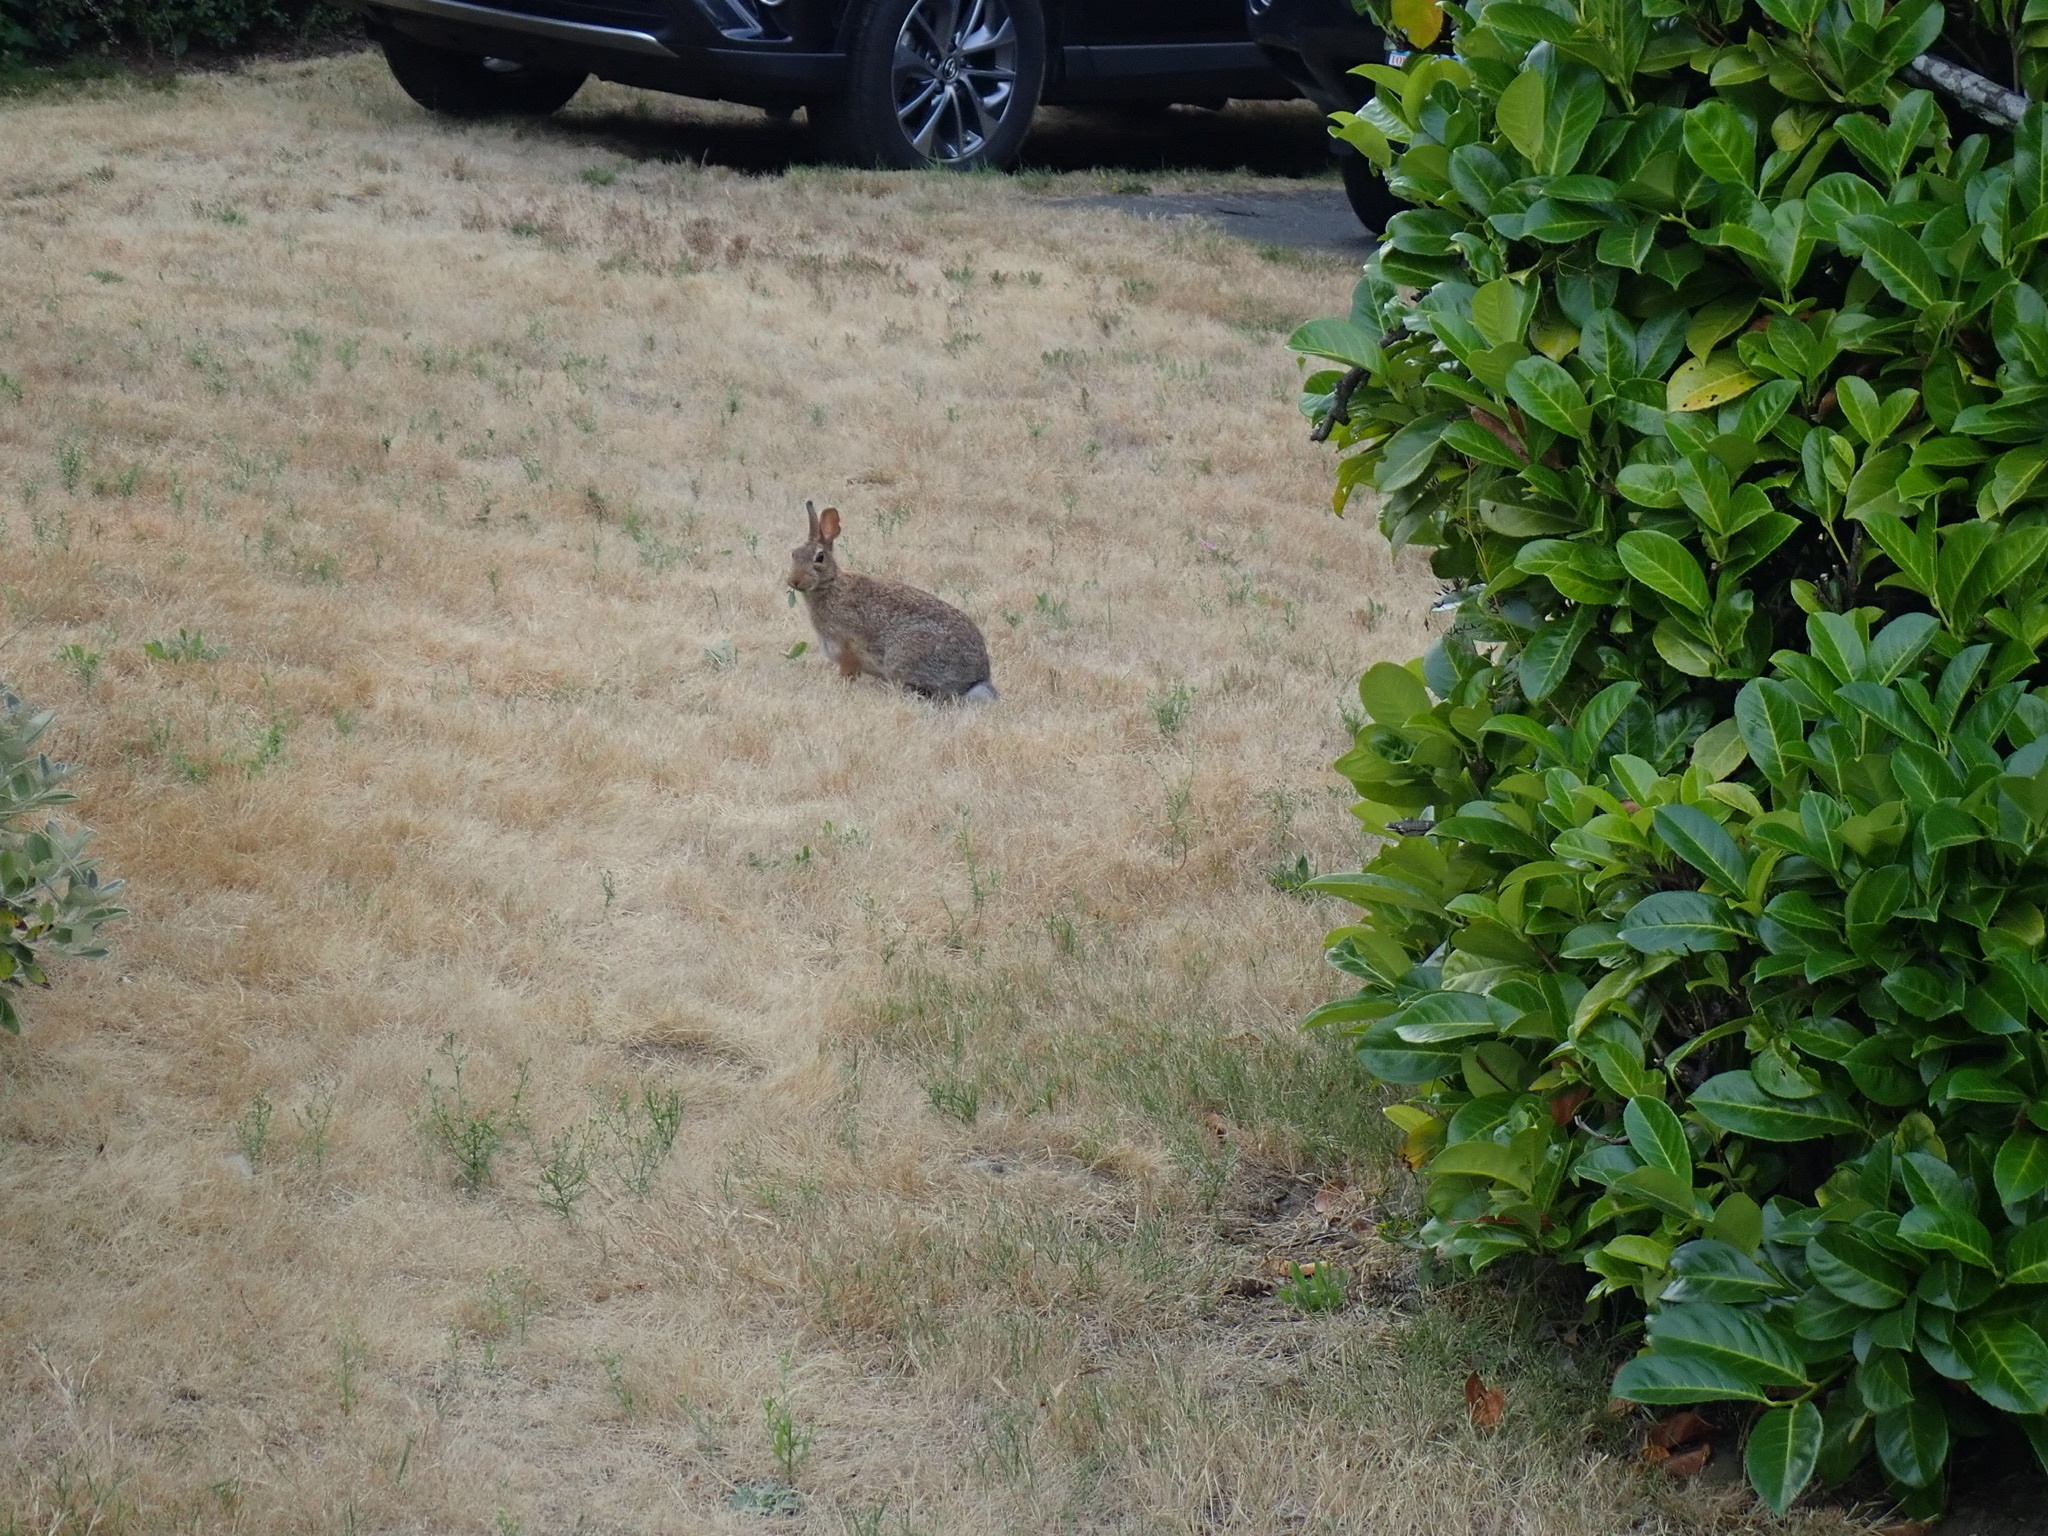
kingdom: Animalia
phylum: Chordata
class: Mammalia
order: Lagomorpha
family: Leporidae
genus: Sylvilagus
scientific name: Sylvilagus floridanus
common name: Eastern cottontail
